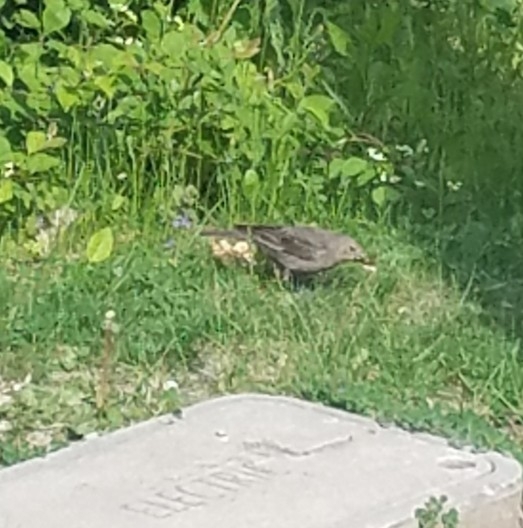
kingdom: Animalia
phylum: Chordata
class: Aves
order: Passeriformes
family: Icteridae
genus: Molothrus
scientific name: Molothrus ater
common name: Brown-headed cowbird
